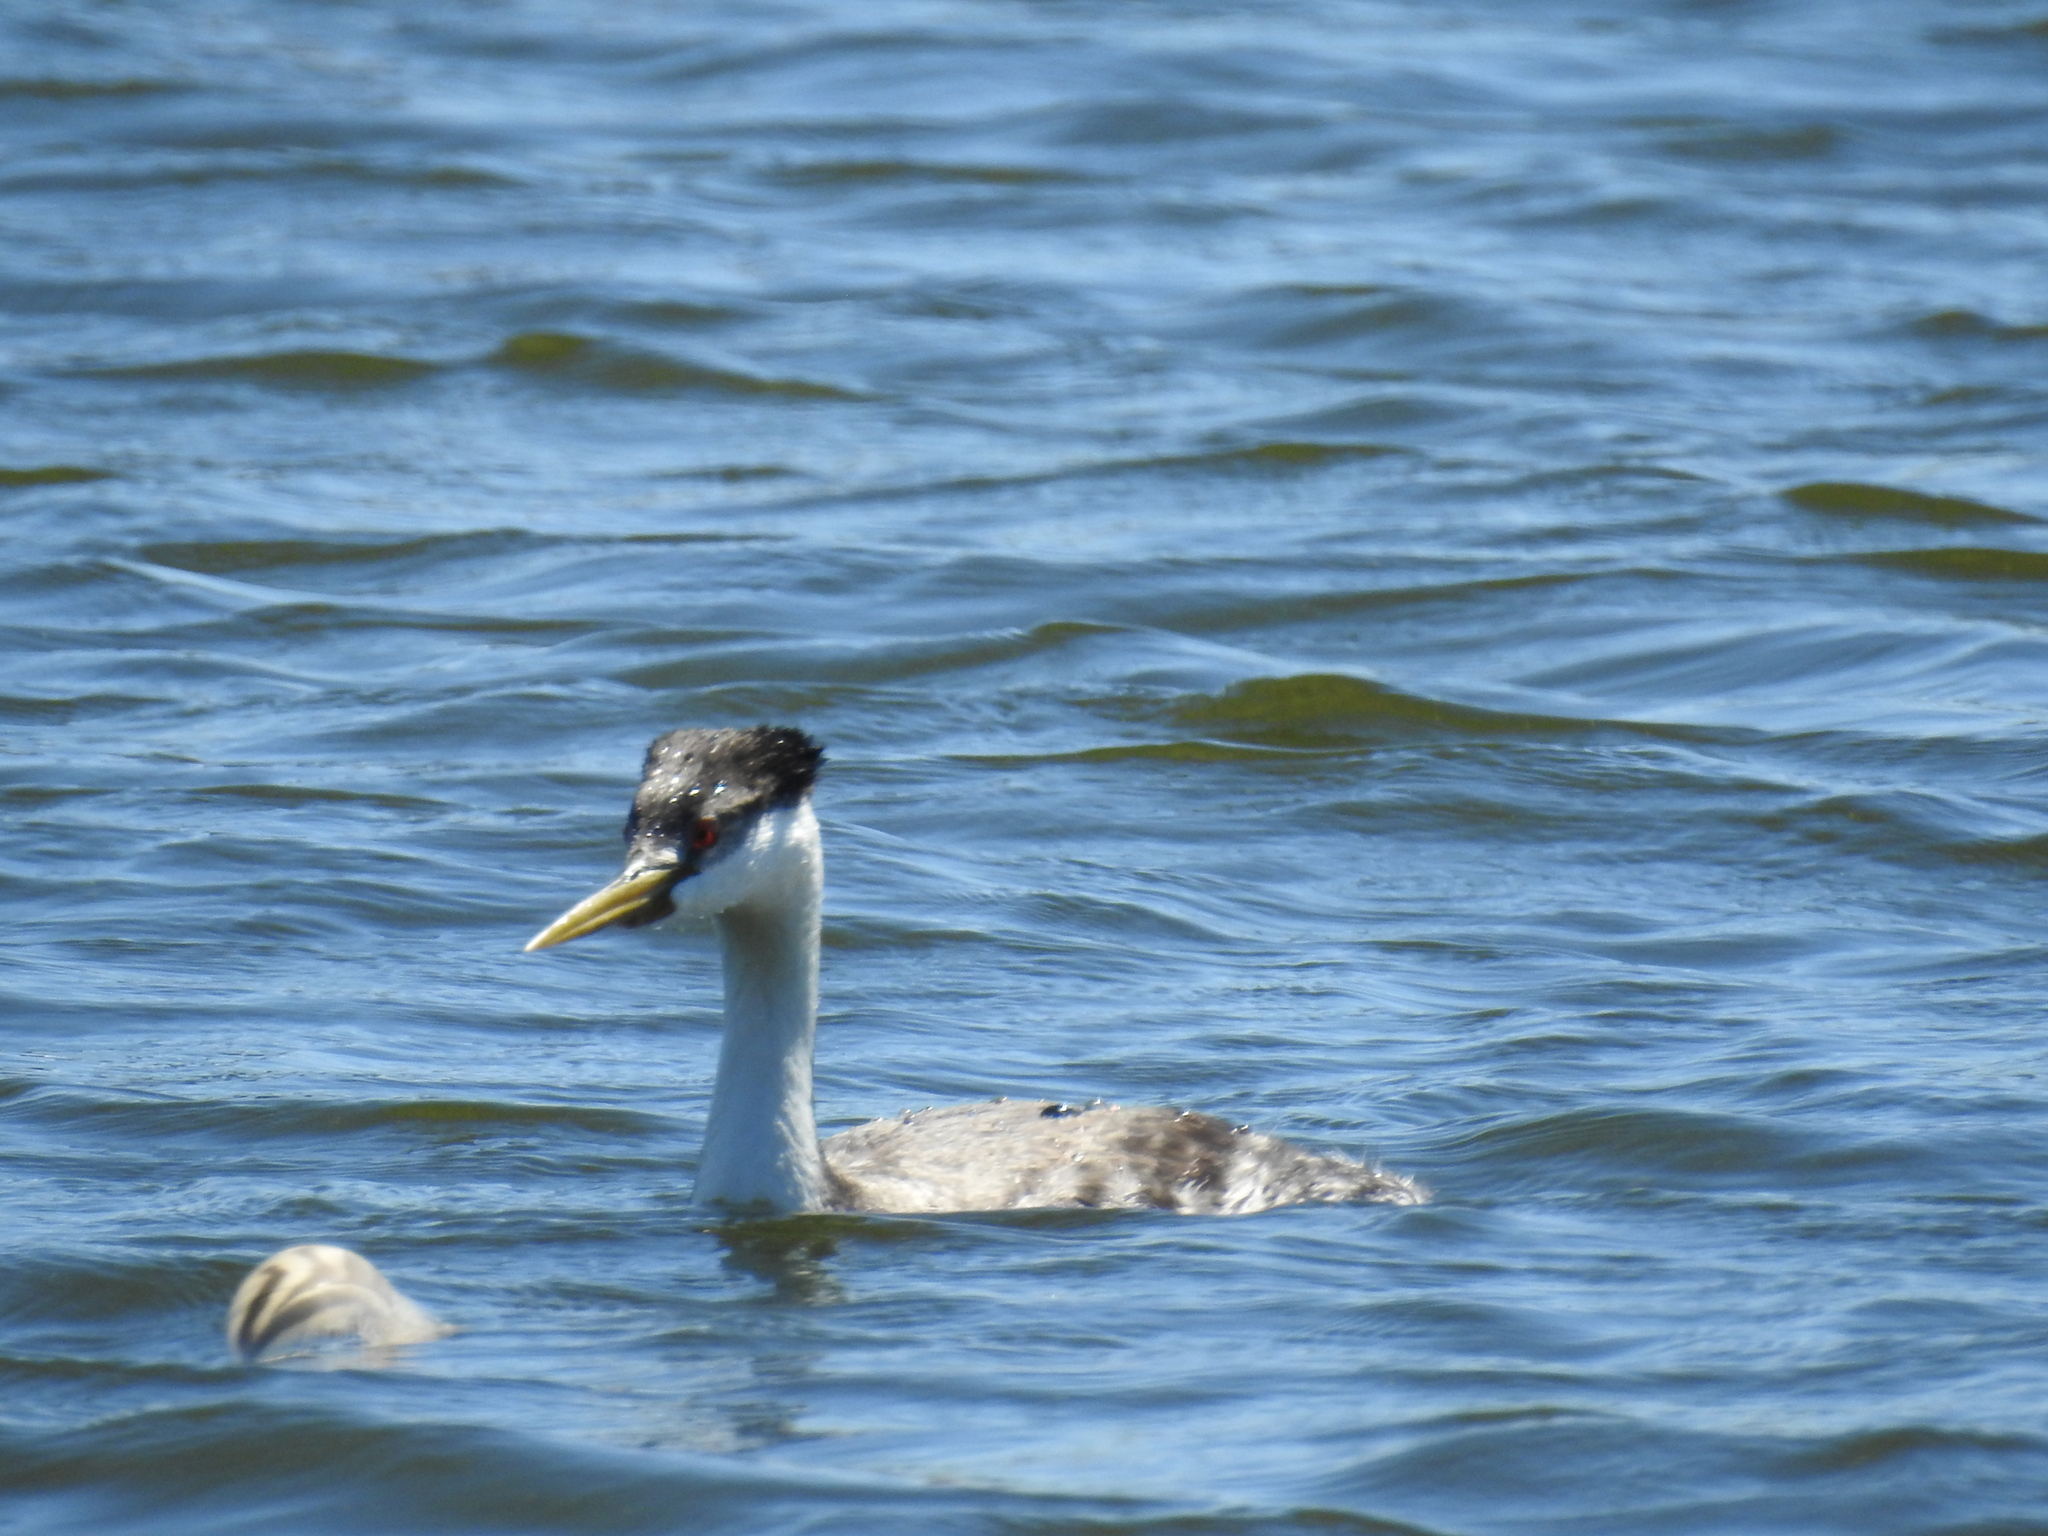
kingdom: Animalia
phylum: Chordata
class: Aves
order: Podicipediformes
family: Podicipedidae
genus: Aechmophorus
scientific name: Aechmophorus occidentalis
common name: Western grebe
